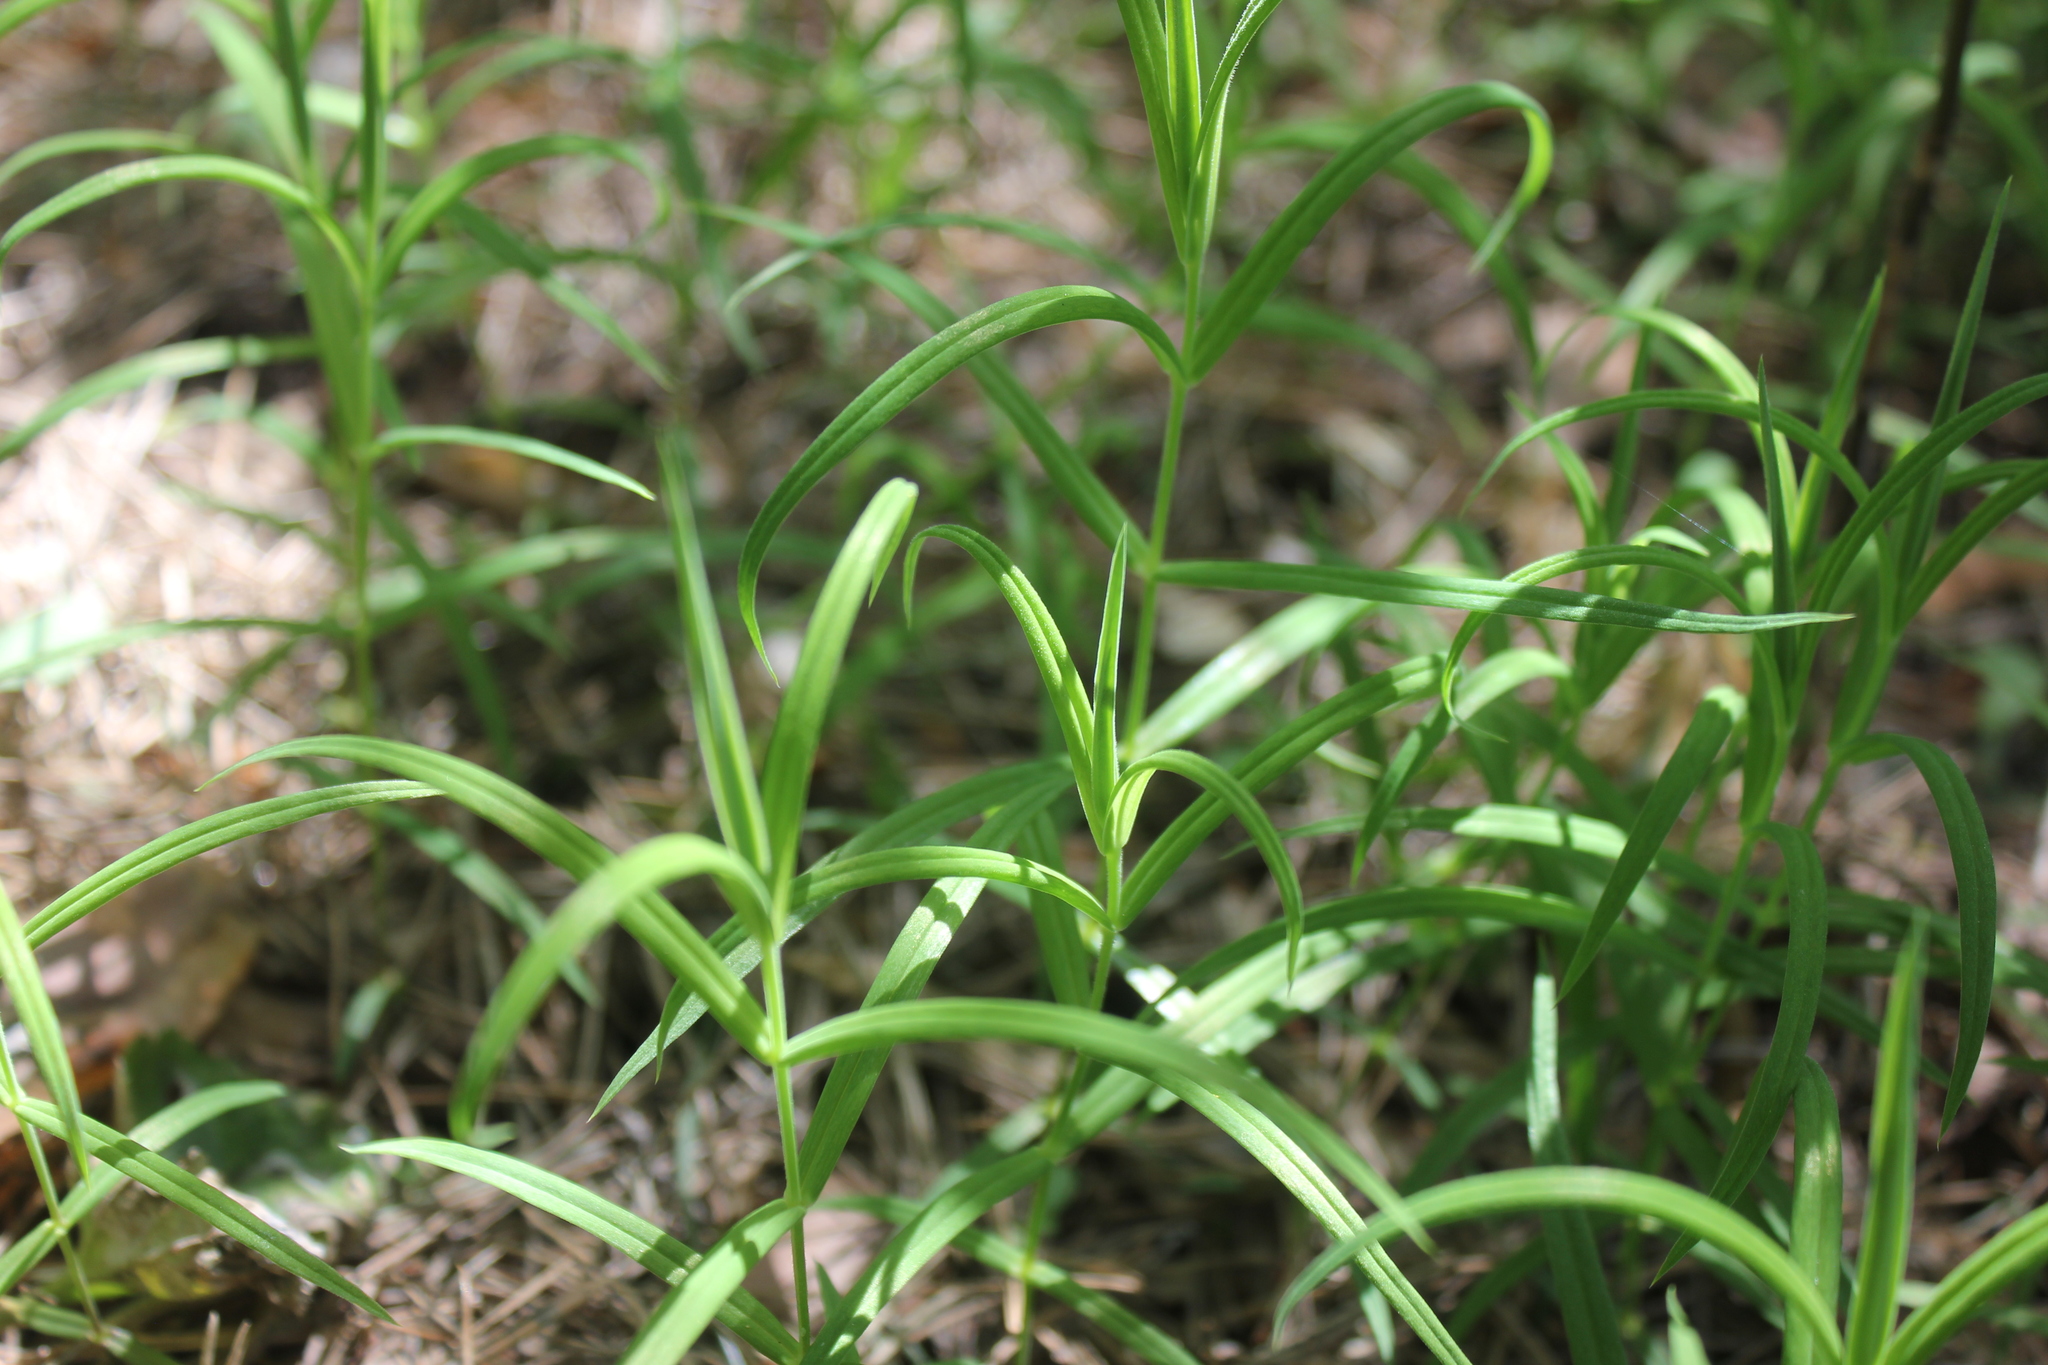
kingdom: Plantae
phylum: Tracheophyta
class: Magnoliopsida
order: Caryophyllales
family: Caryophyllaceae
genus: Rabelera
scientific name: Rabelera holostea
